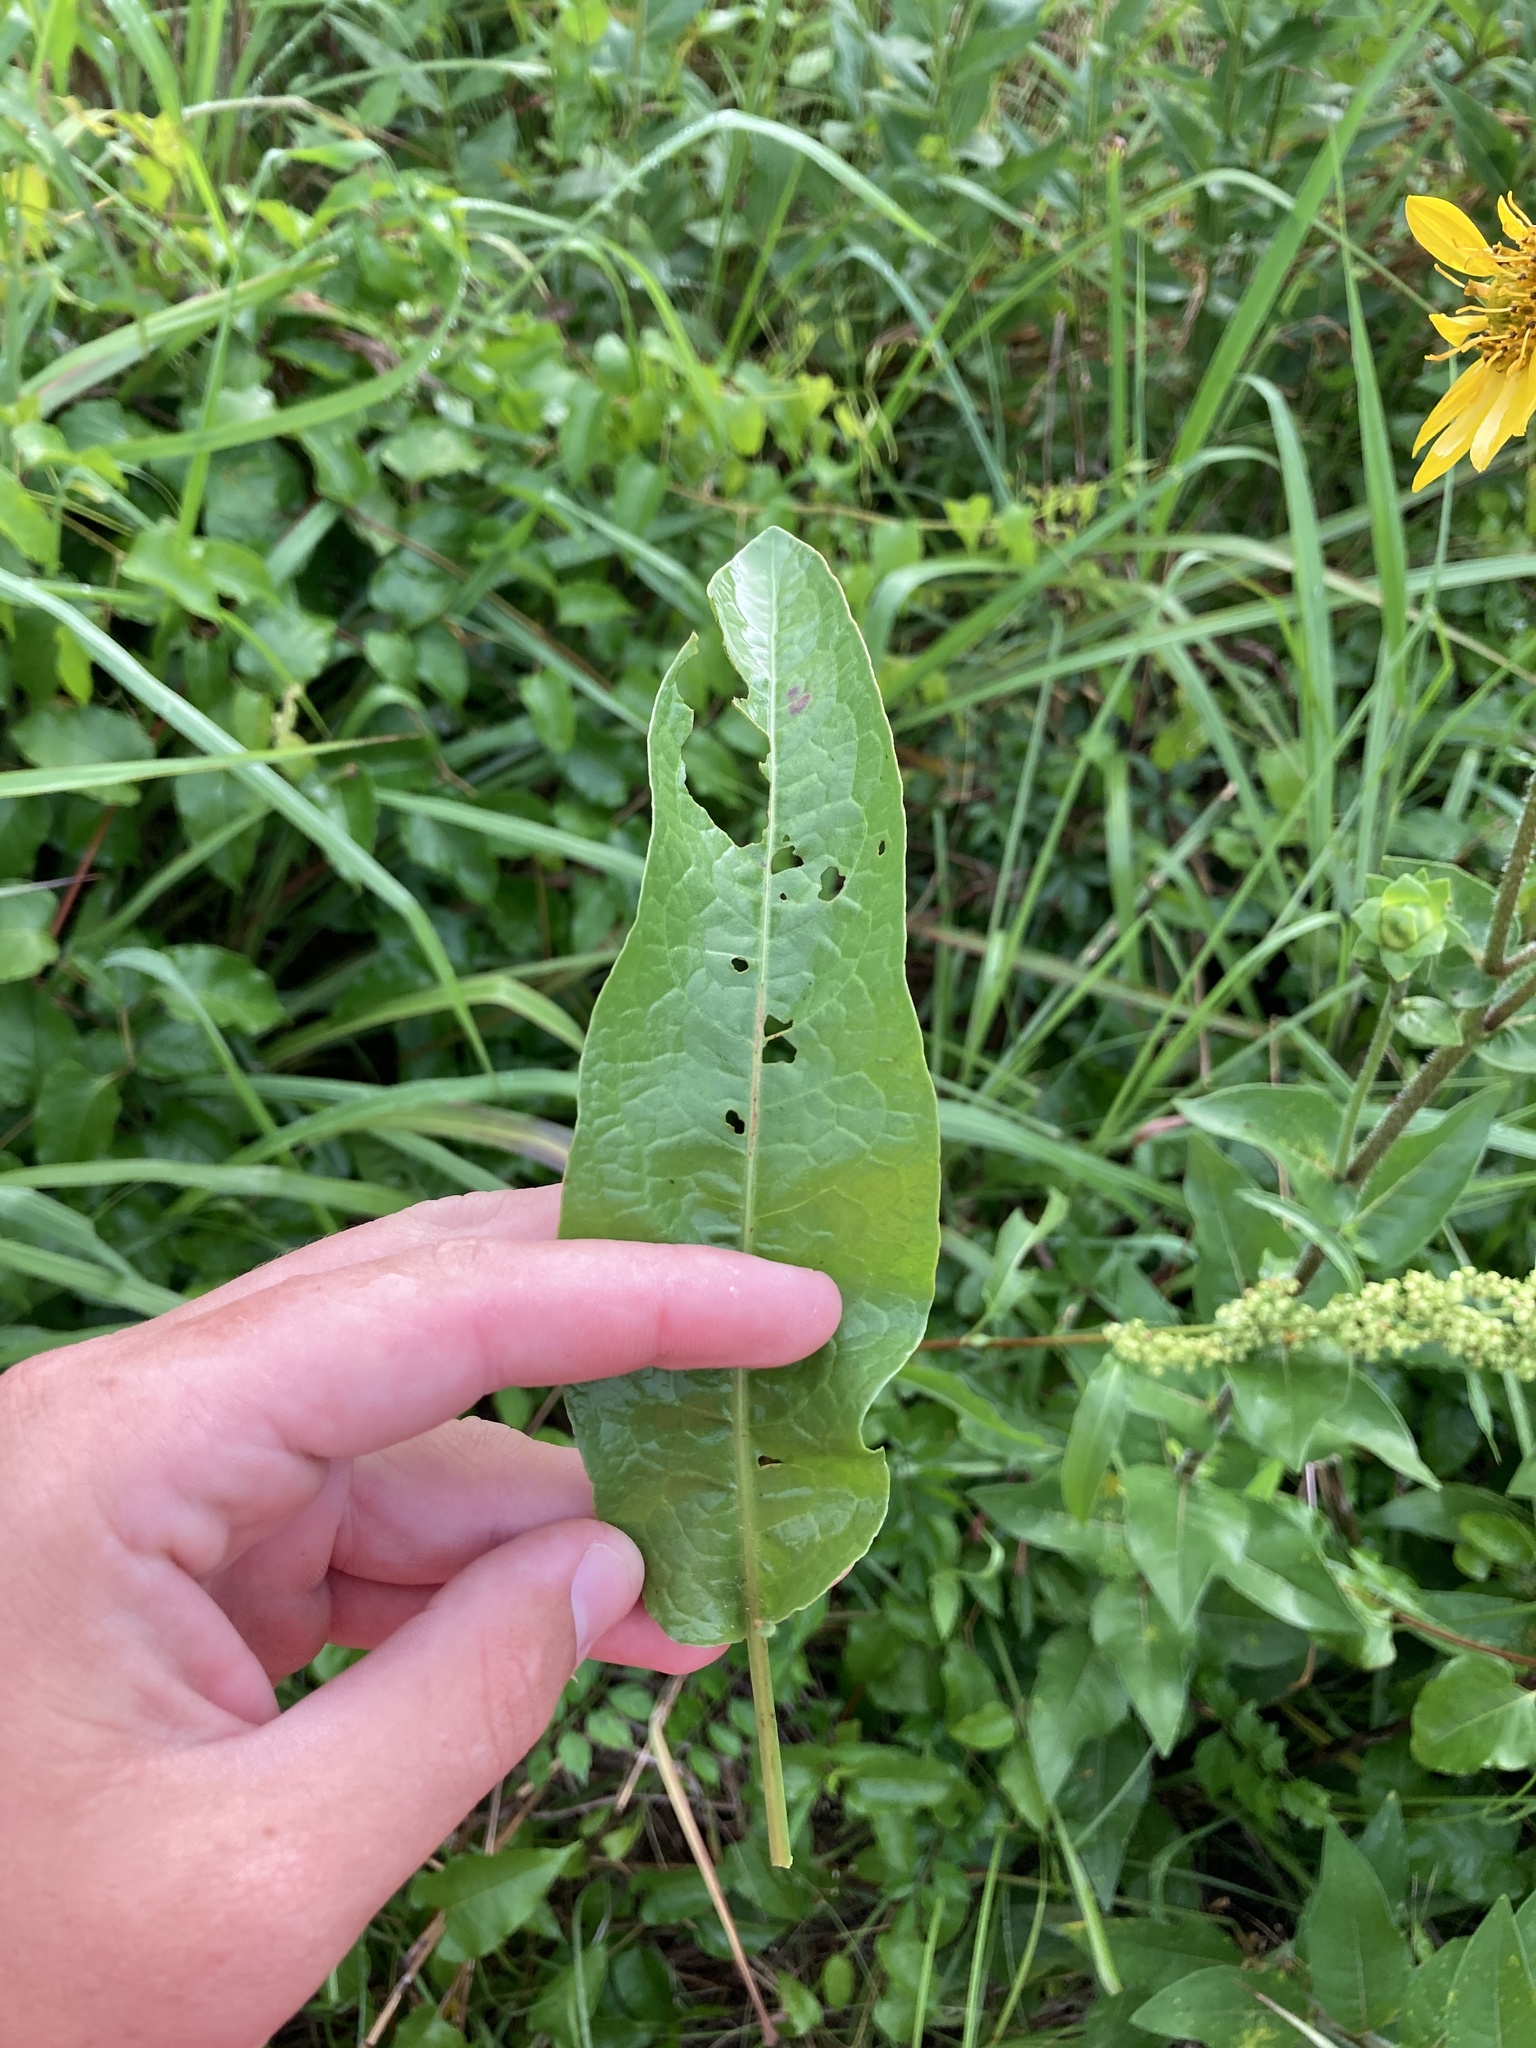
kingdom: Plantae
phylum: Tracheophyta
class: Magnoliopsida
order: Caryophyllales
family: Polygonaceae
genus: Rumex
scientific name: Rumex crispus
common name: Curled dock
